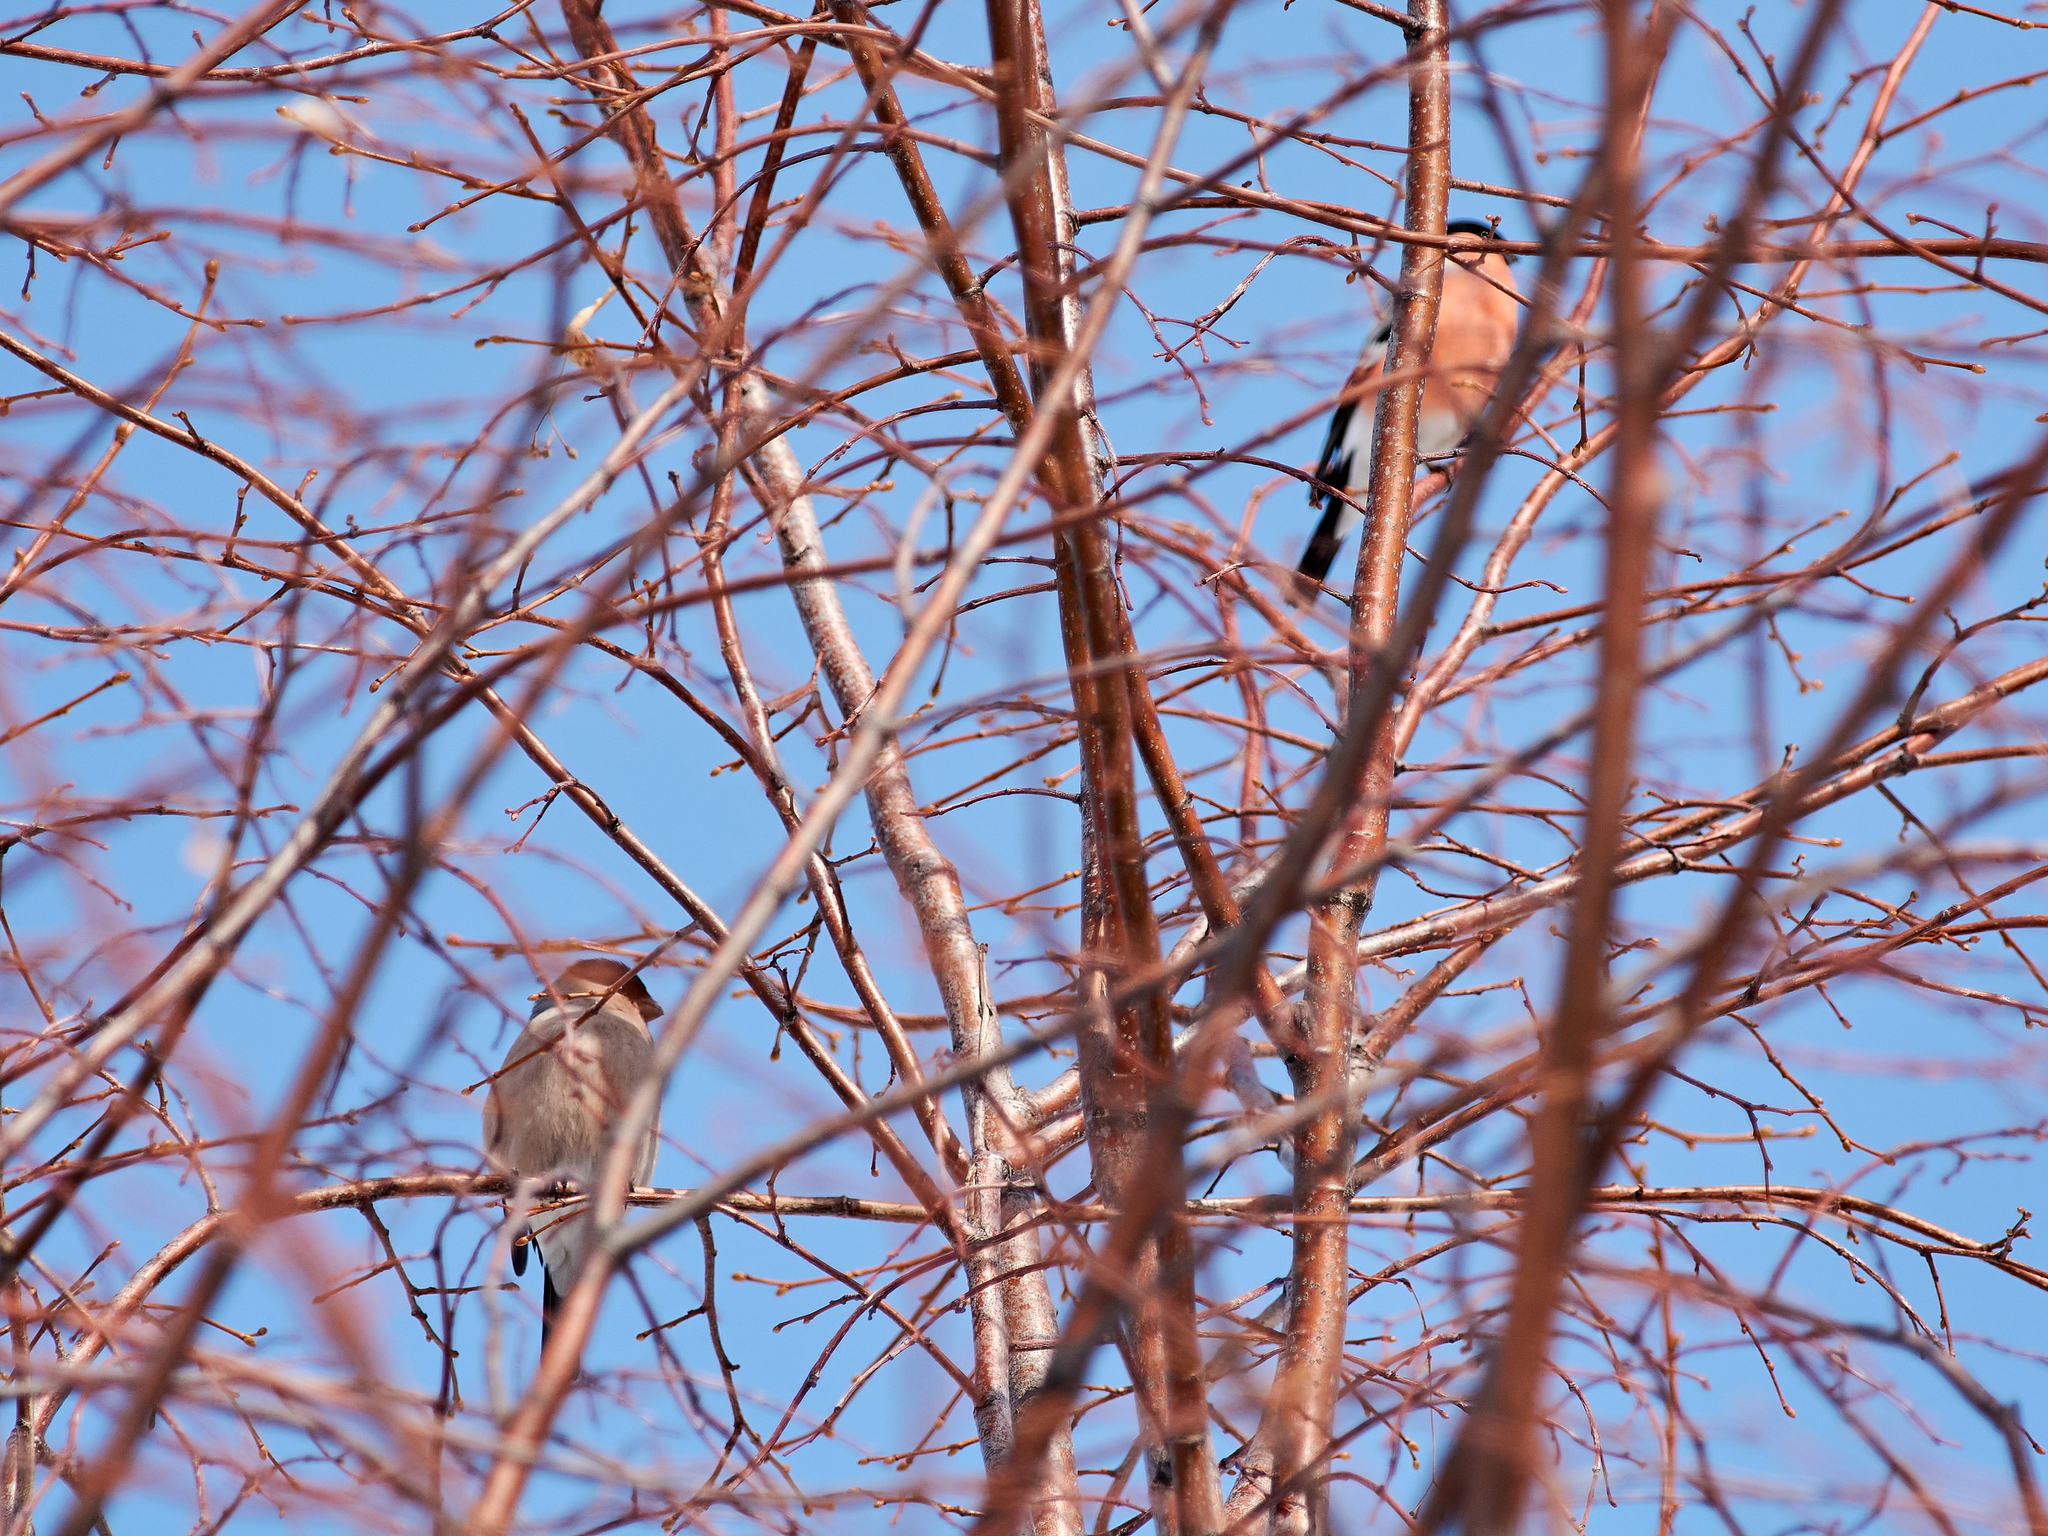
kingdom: Animalia
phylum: Chordata
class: Aves
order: Passeriformes
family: Fringillidae
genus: Pyrrhula
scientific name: Pyrrhula pyrrhula
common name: Eurasian bullfinch
